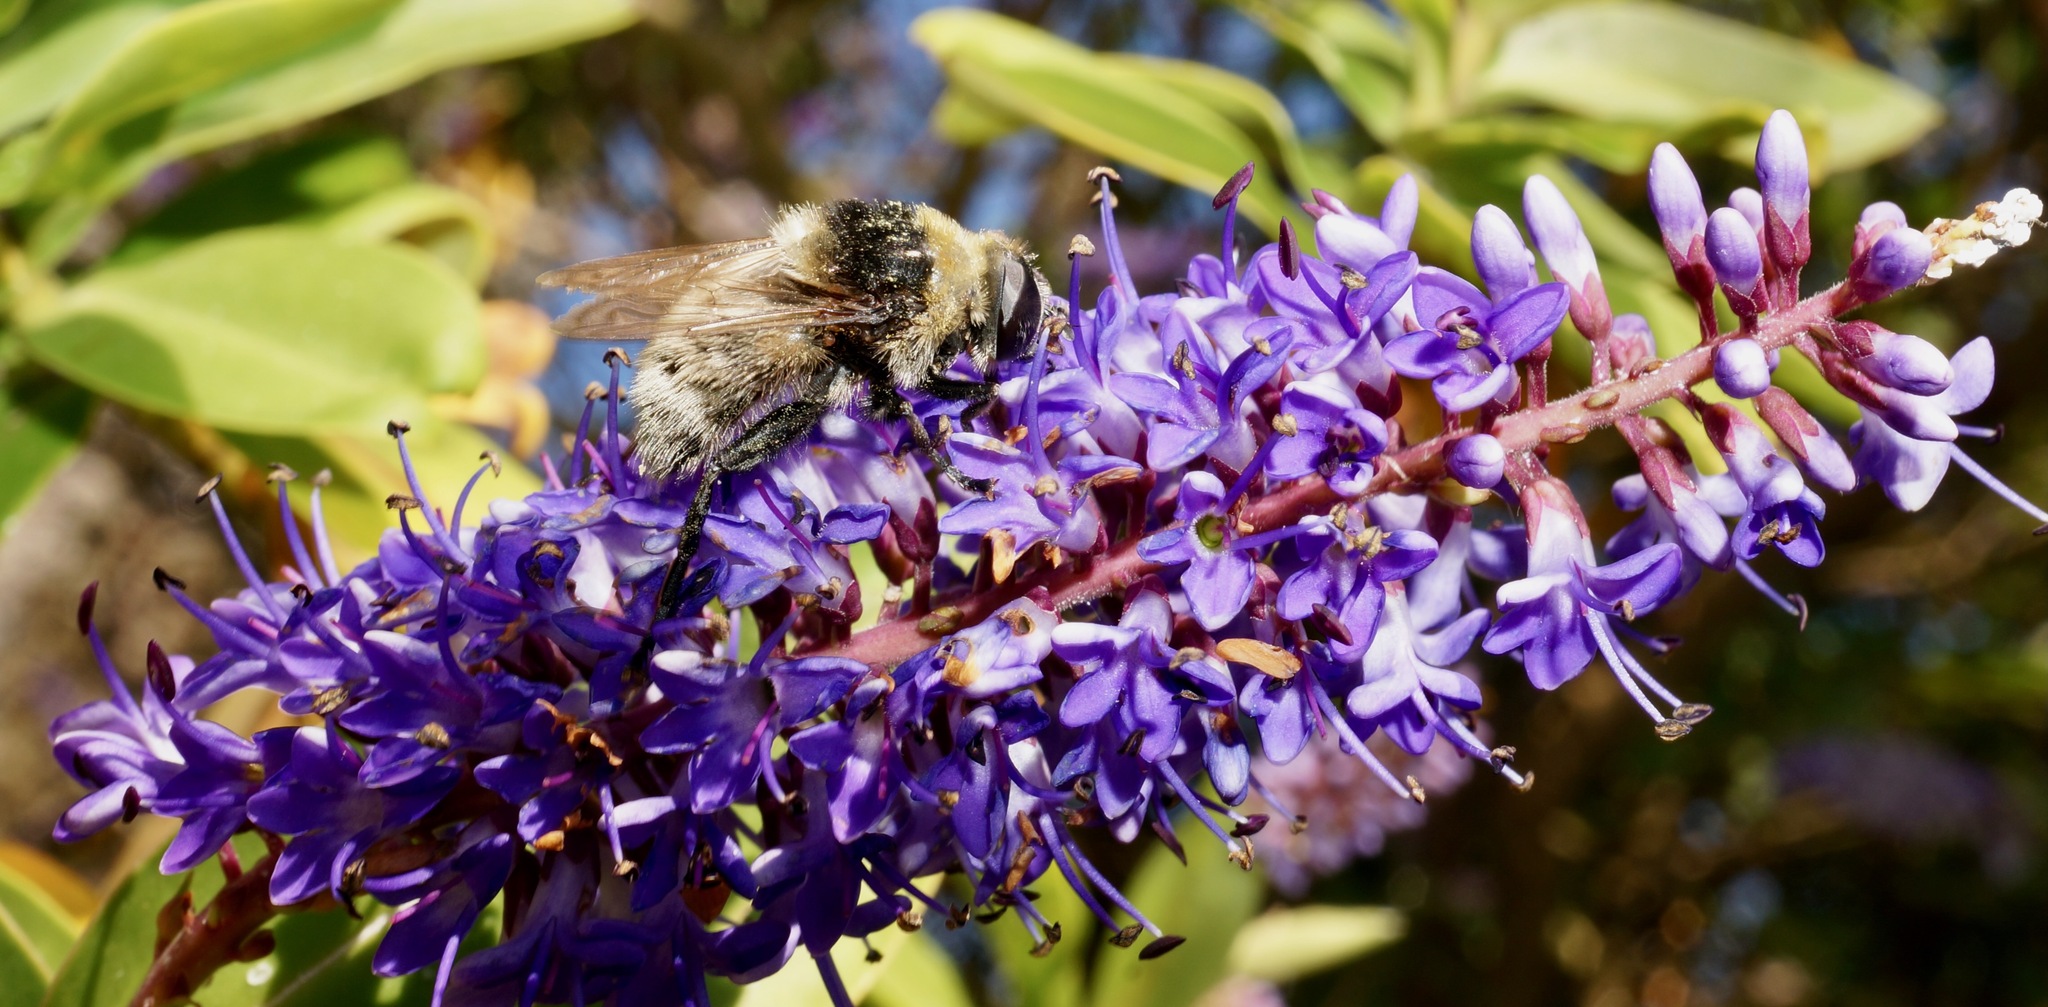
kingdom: Animalia
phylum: Arthropoda
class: Insecta
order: Diptera
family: Syrphidae
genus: Merodon
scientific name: Merodon equestris
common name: Greater bulb-fly
